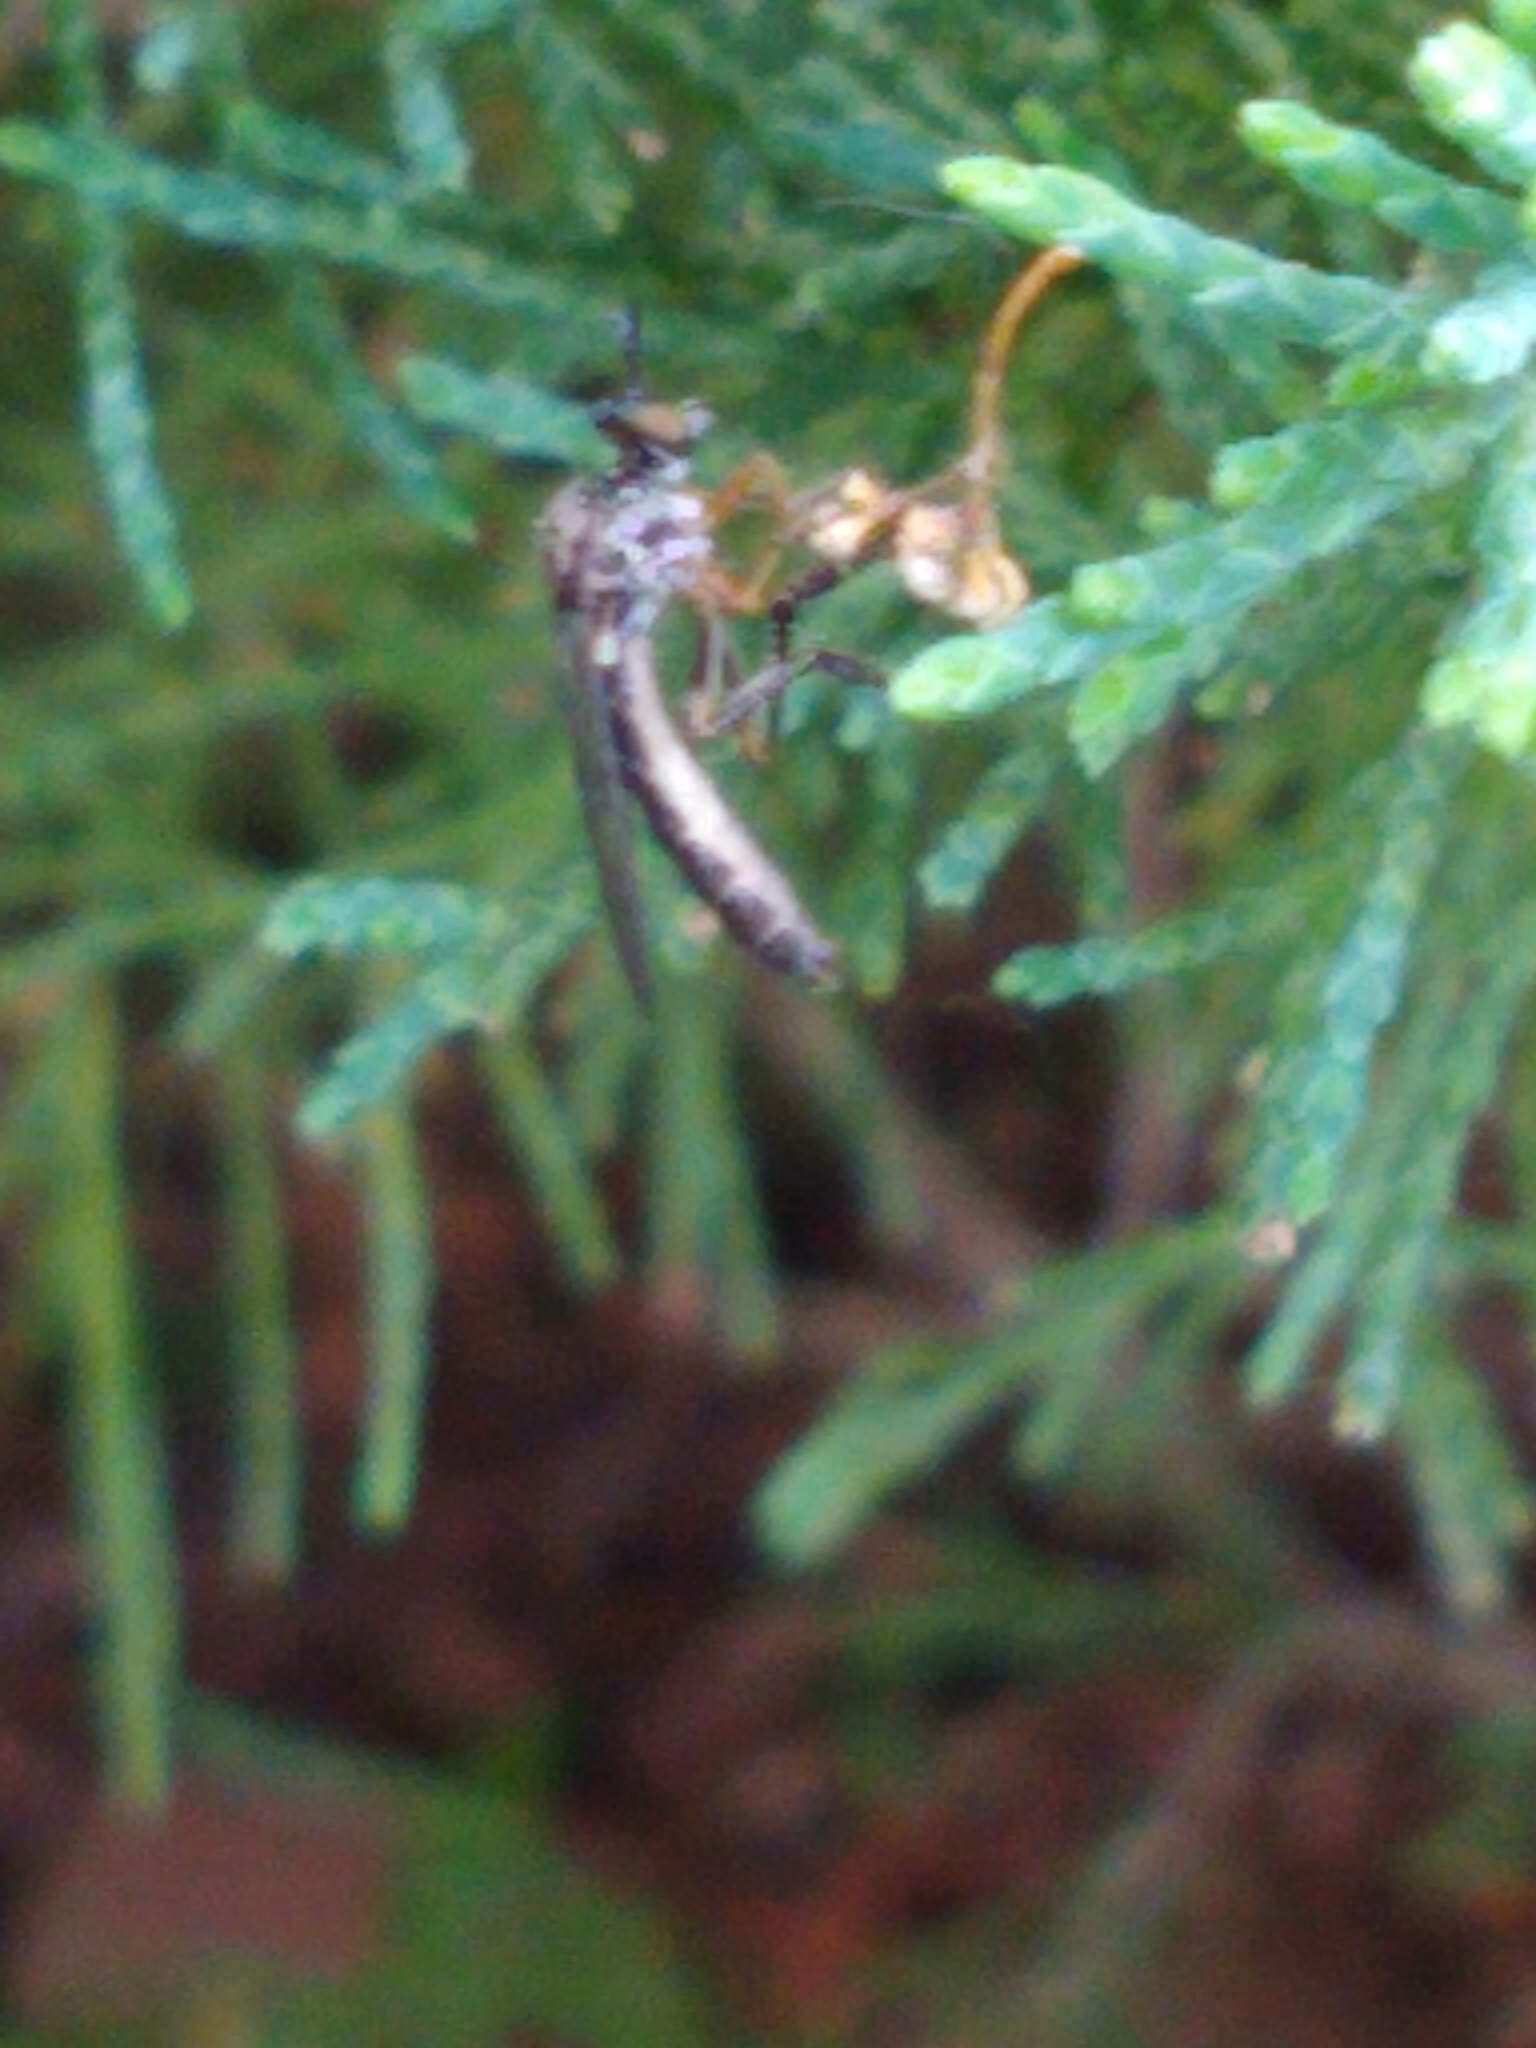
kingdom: Animalia
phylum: Arthropoda
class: Insecta
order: Diptera
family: Asilidae
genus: Dioctria
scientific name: Dioctria hyalipennis
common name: Stripe-legged robberfly
